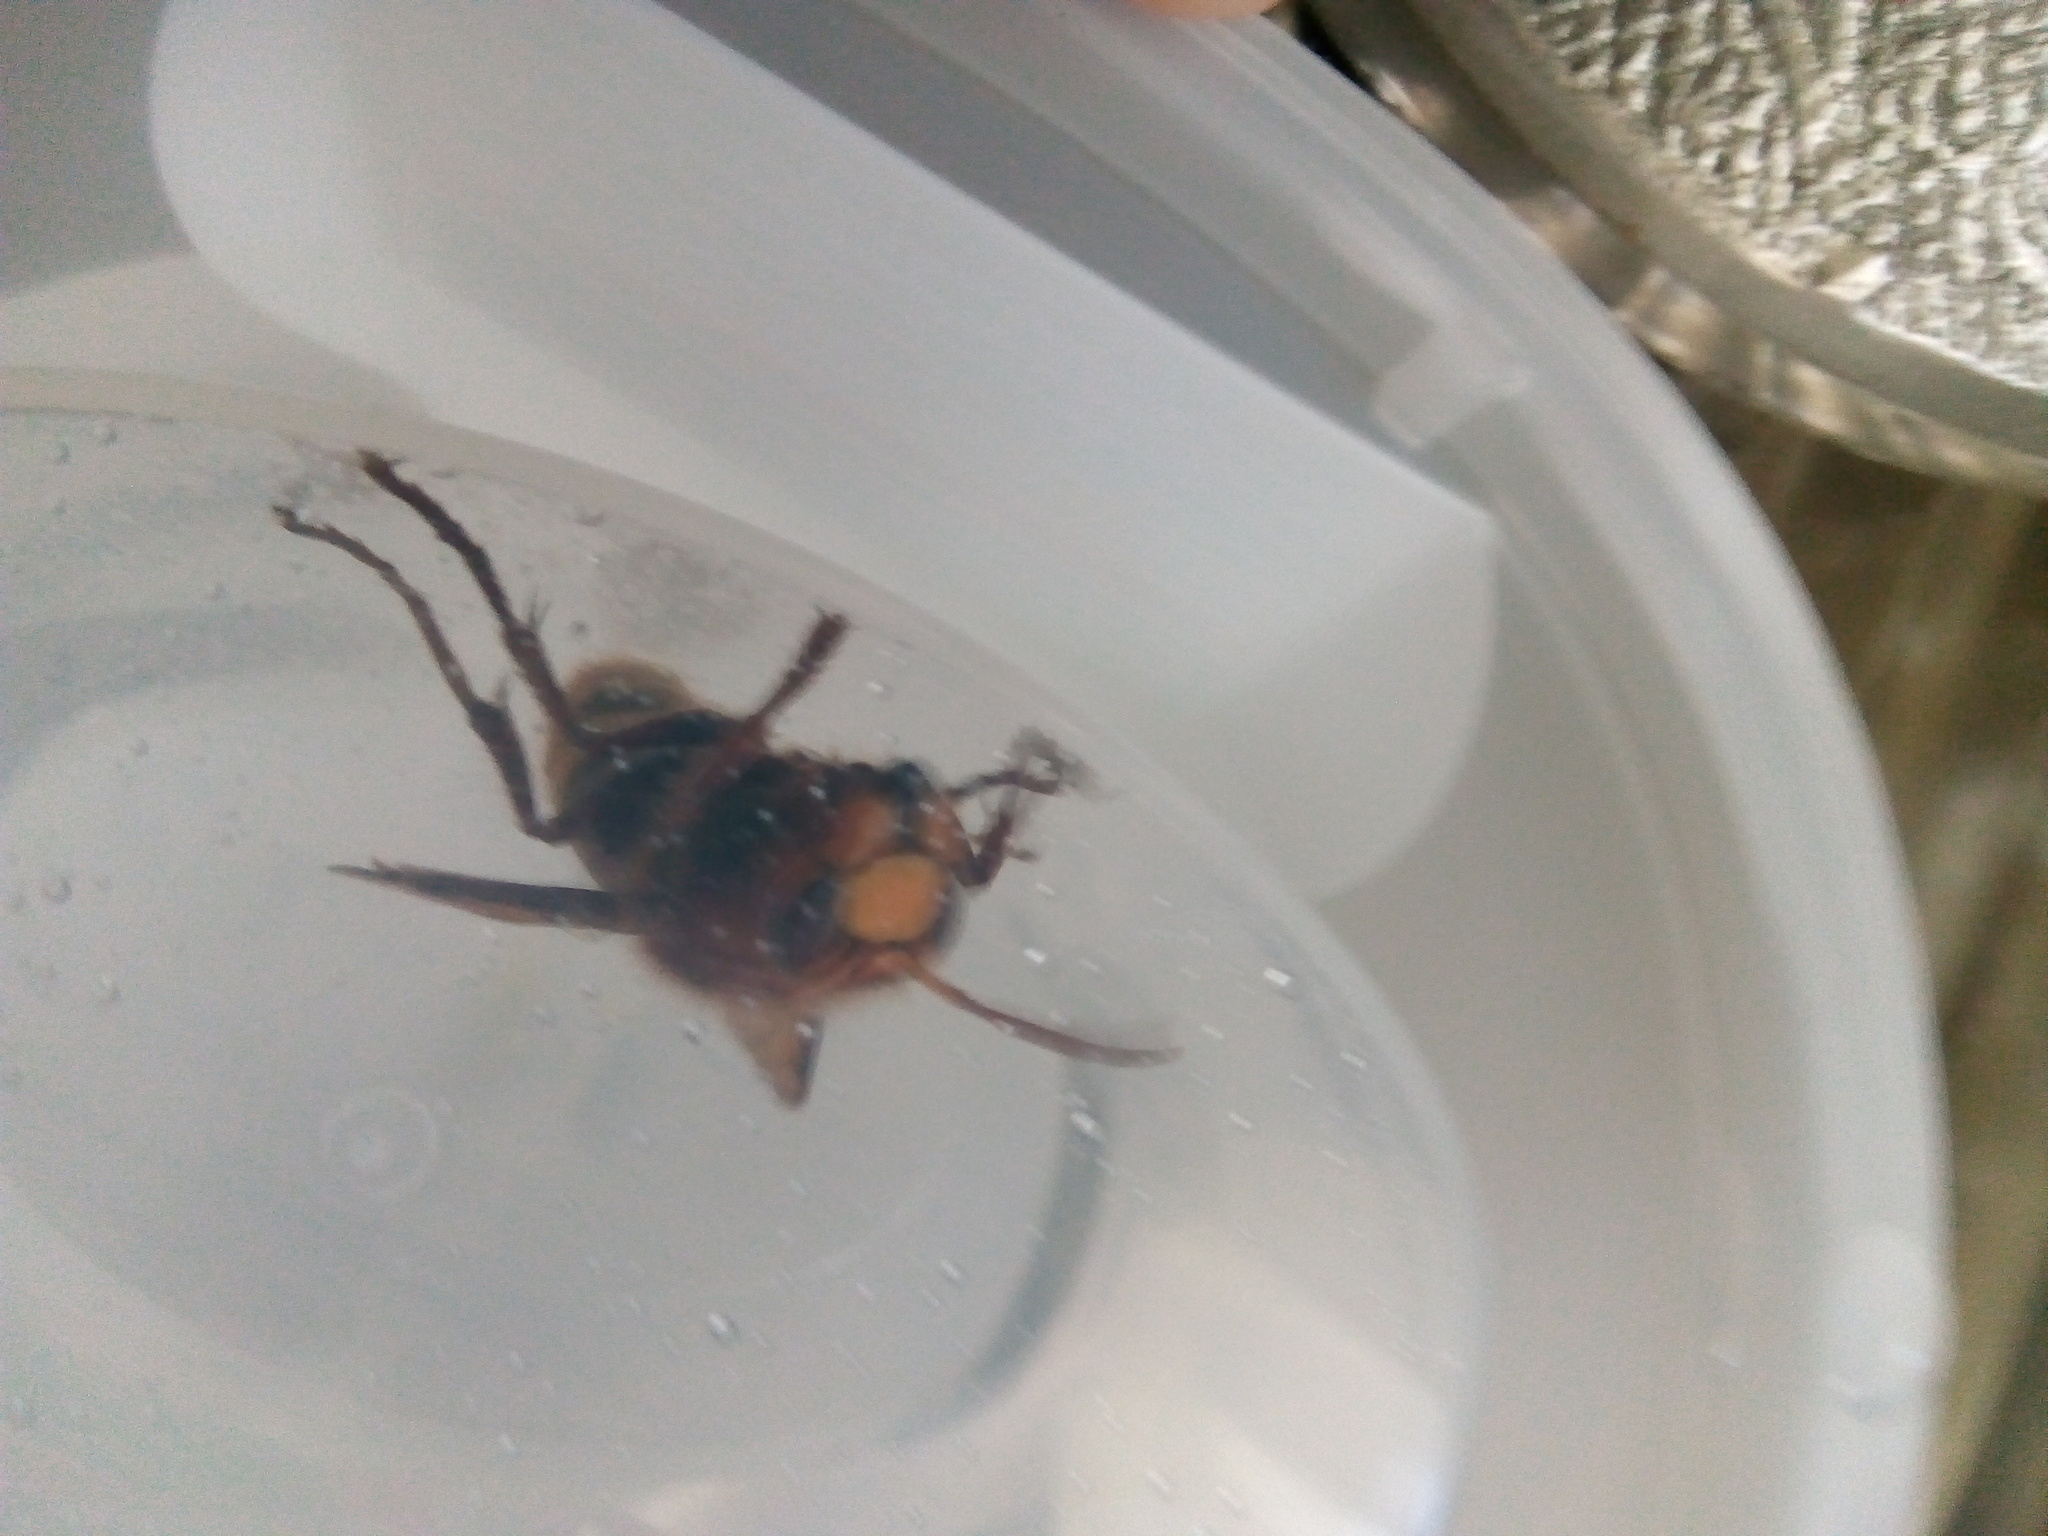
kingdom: Animalia
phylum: Arthropoda
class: Insecta
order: Hymenoptera
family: Vespidae
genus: Vespa
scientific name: Vespa crabro
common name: Hornet
